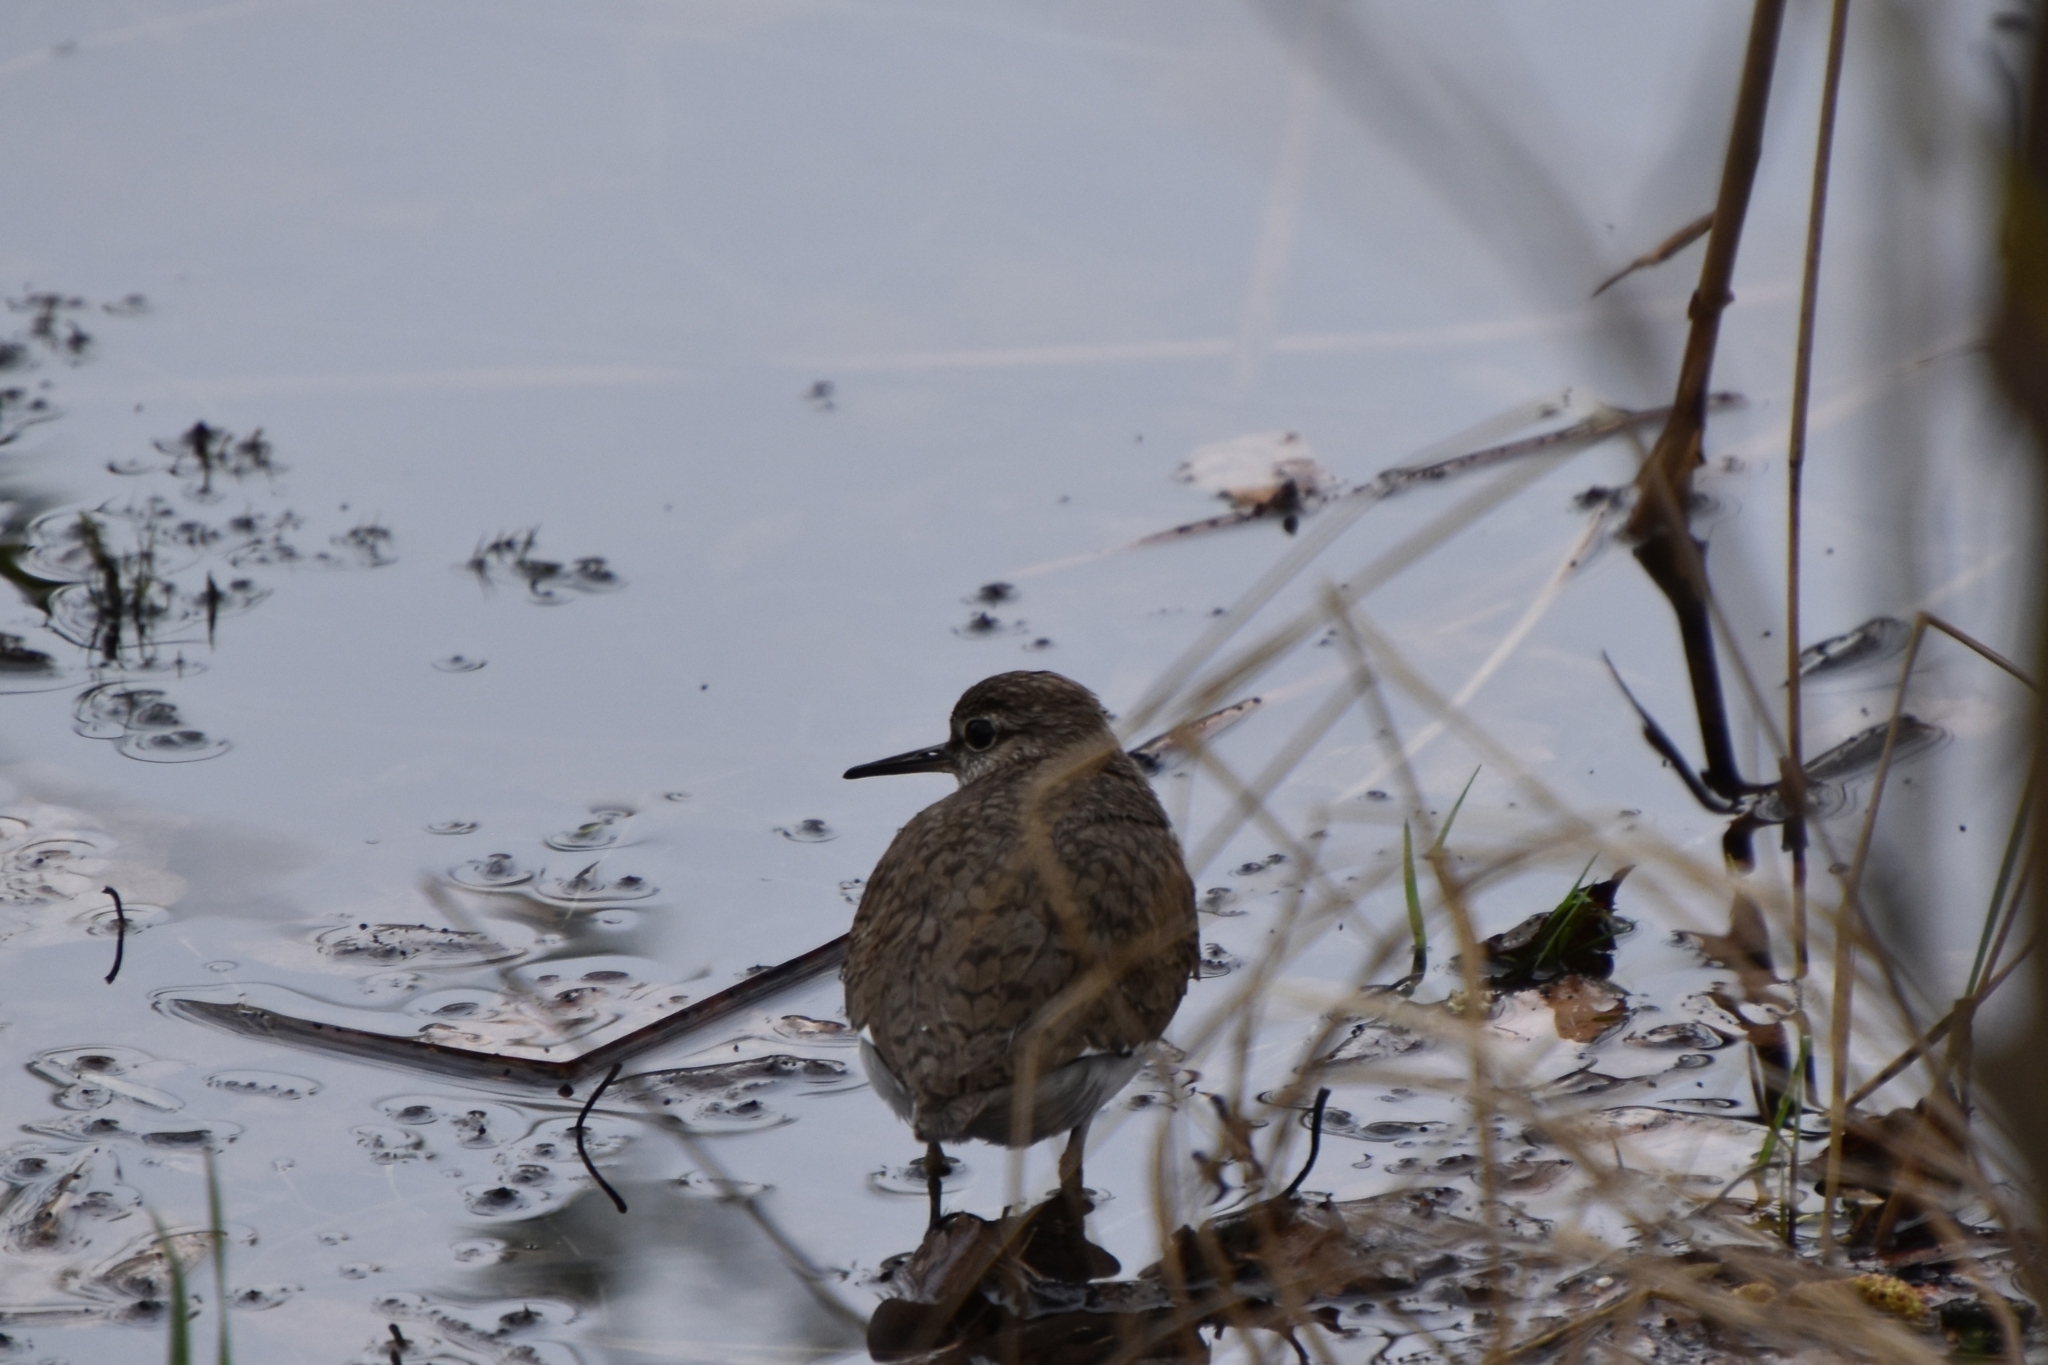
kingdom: Animalia
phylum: Chordata
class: Aves
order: Charadriiformes
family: Scolopacidae
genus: Actitis
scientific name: Actitis hypoleucos
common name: Common sandpiper
